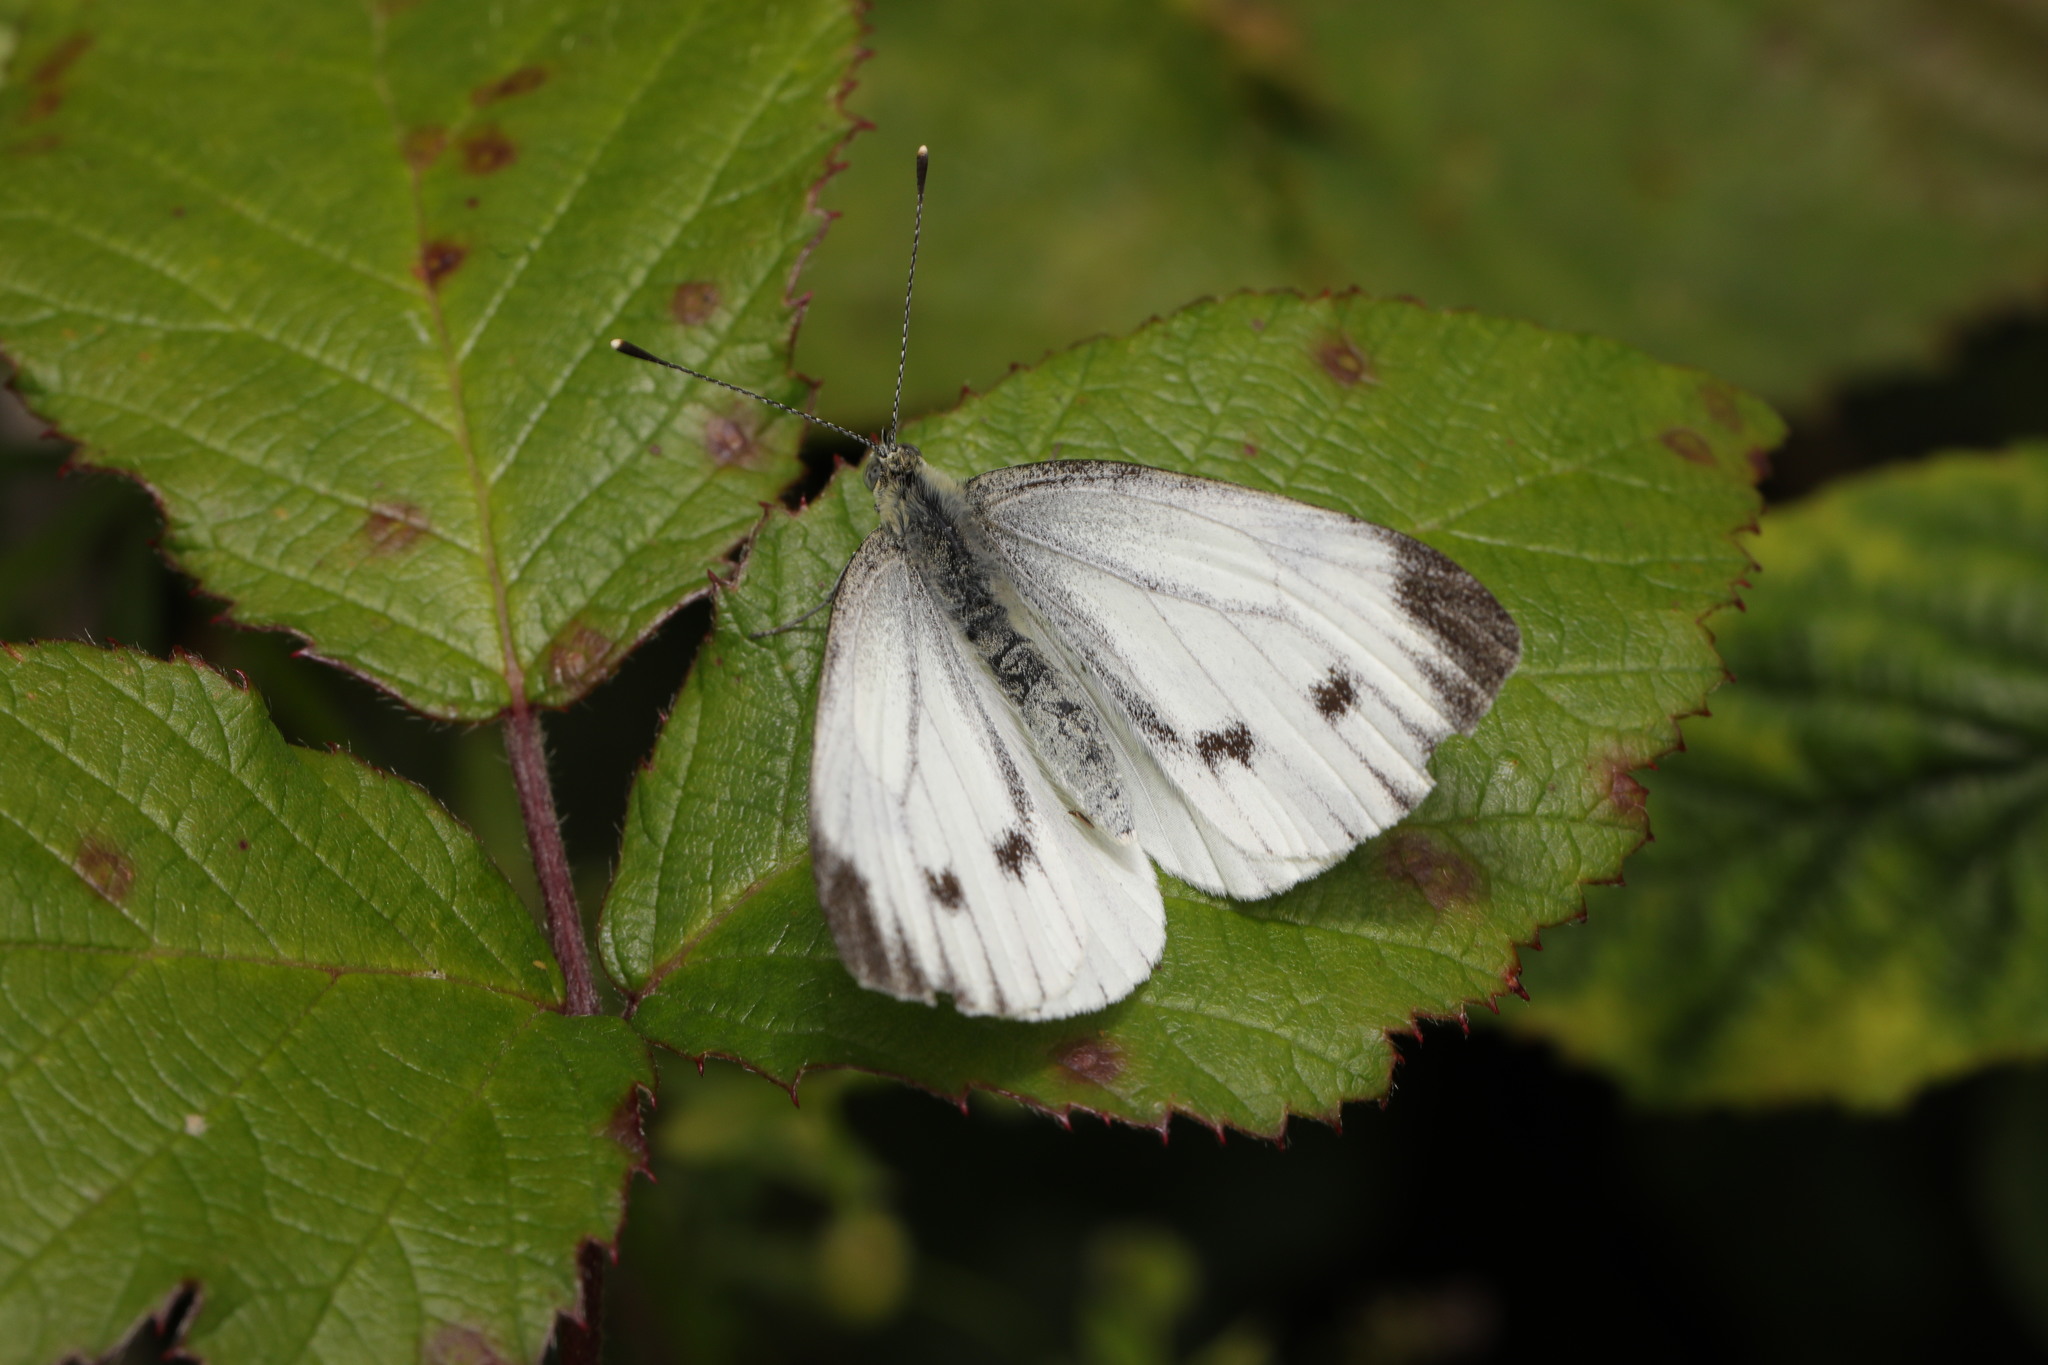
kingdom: Animalia
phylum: Arthropoda
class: Insecta
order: Lepidoptera
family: Pieridae
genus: Pieris
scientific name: Pieris napi
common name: Green-veined white
